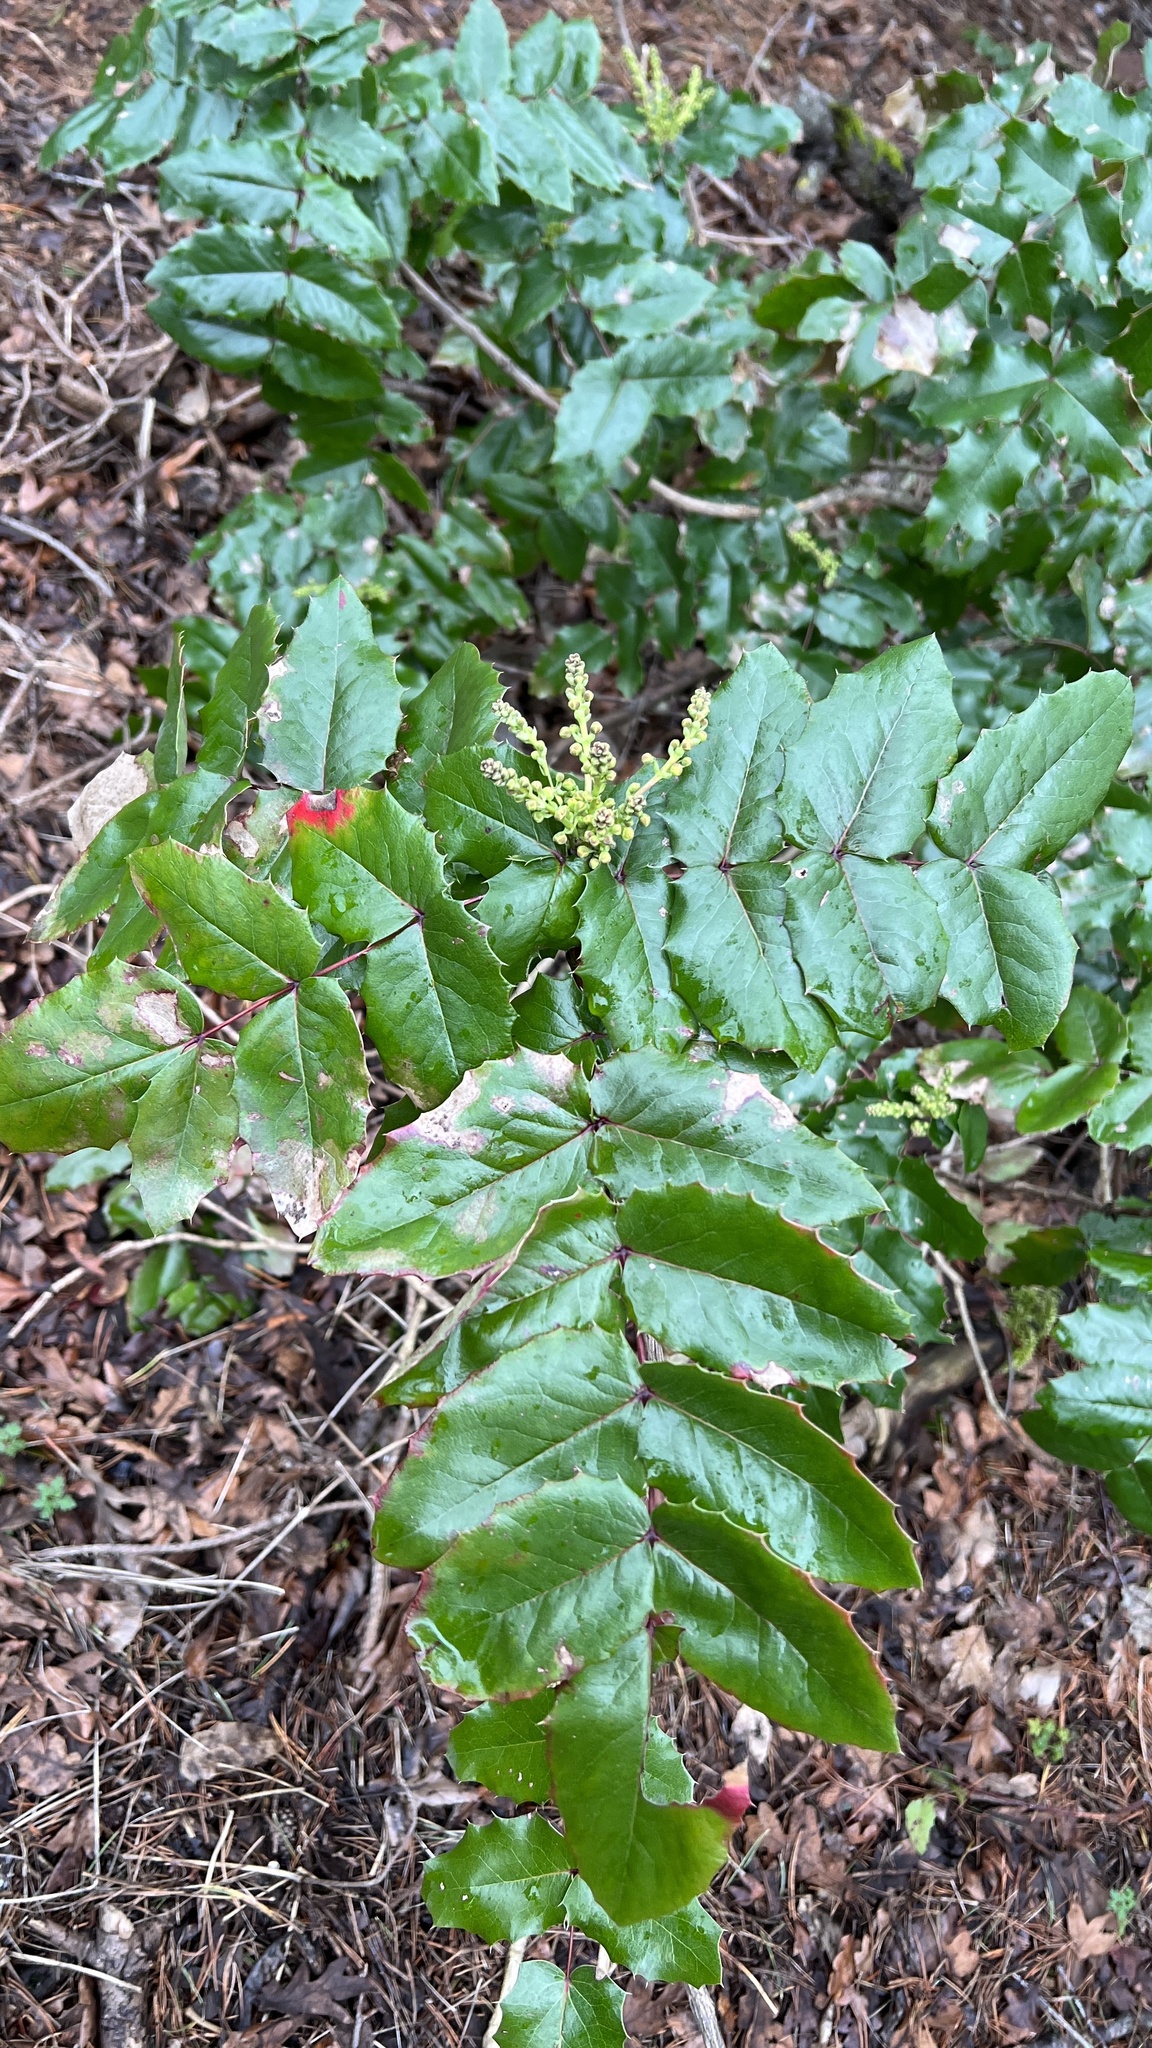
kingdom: Plantae
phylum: Tracheophyta
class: Magnoliopsida
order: Ranunculales
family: Berberidaceae
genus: Mahonia
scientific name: Mahonia aquifolium
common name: Oregon-grape
